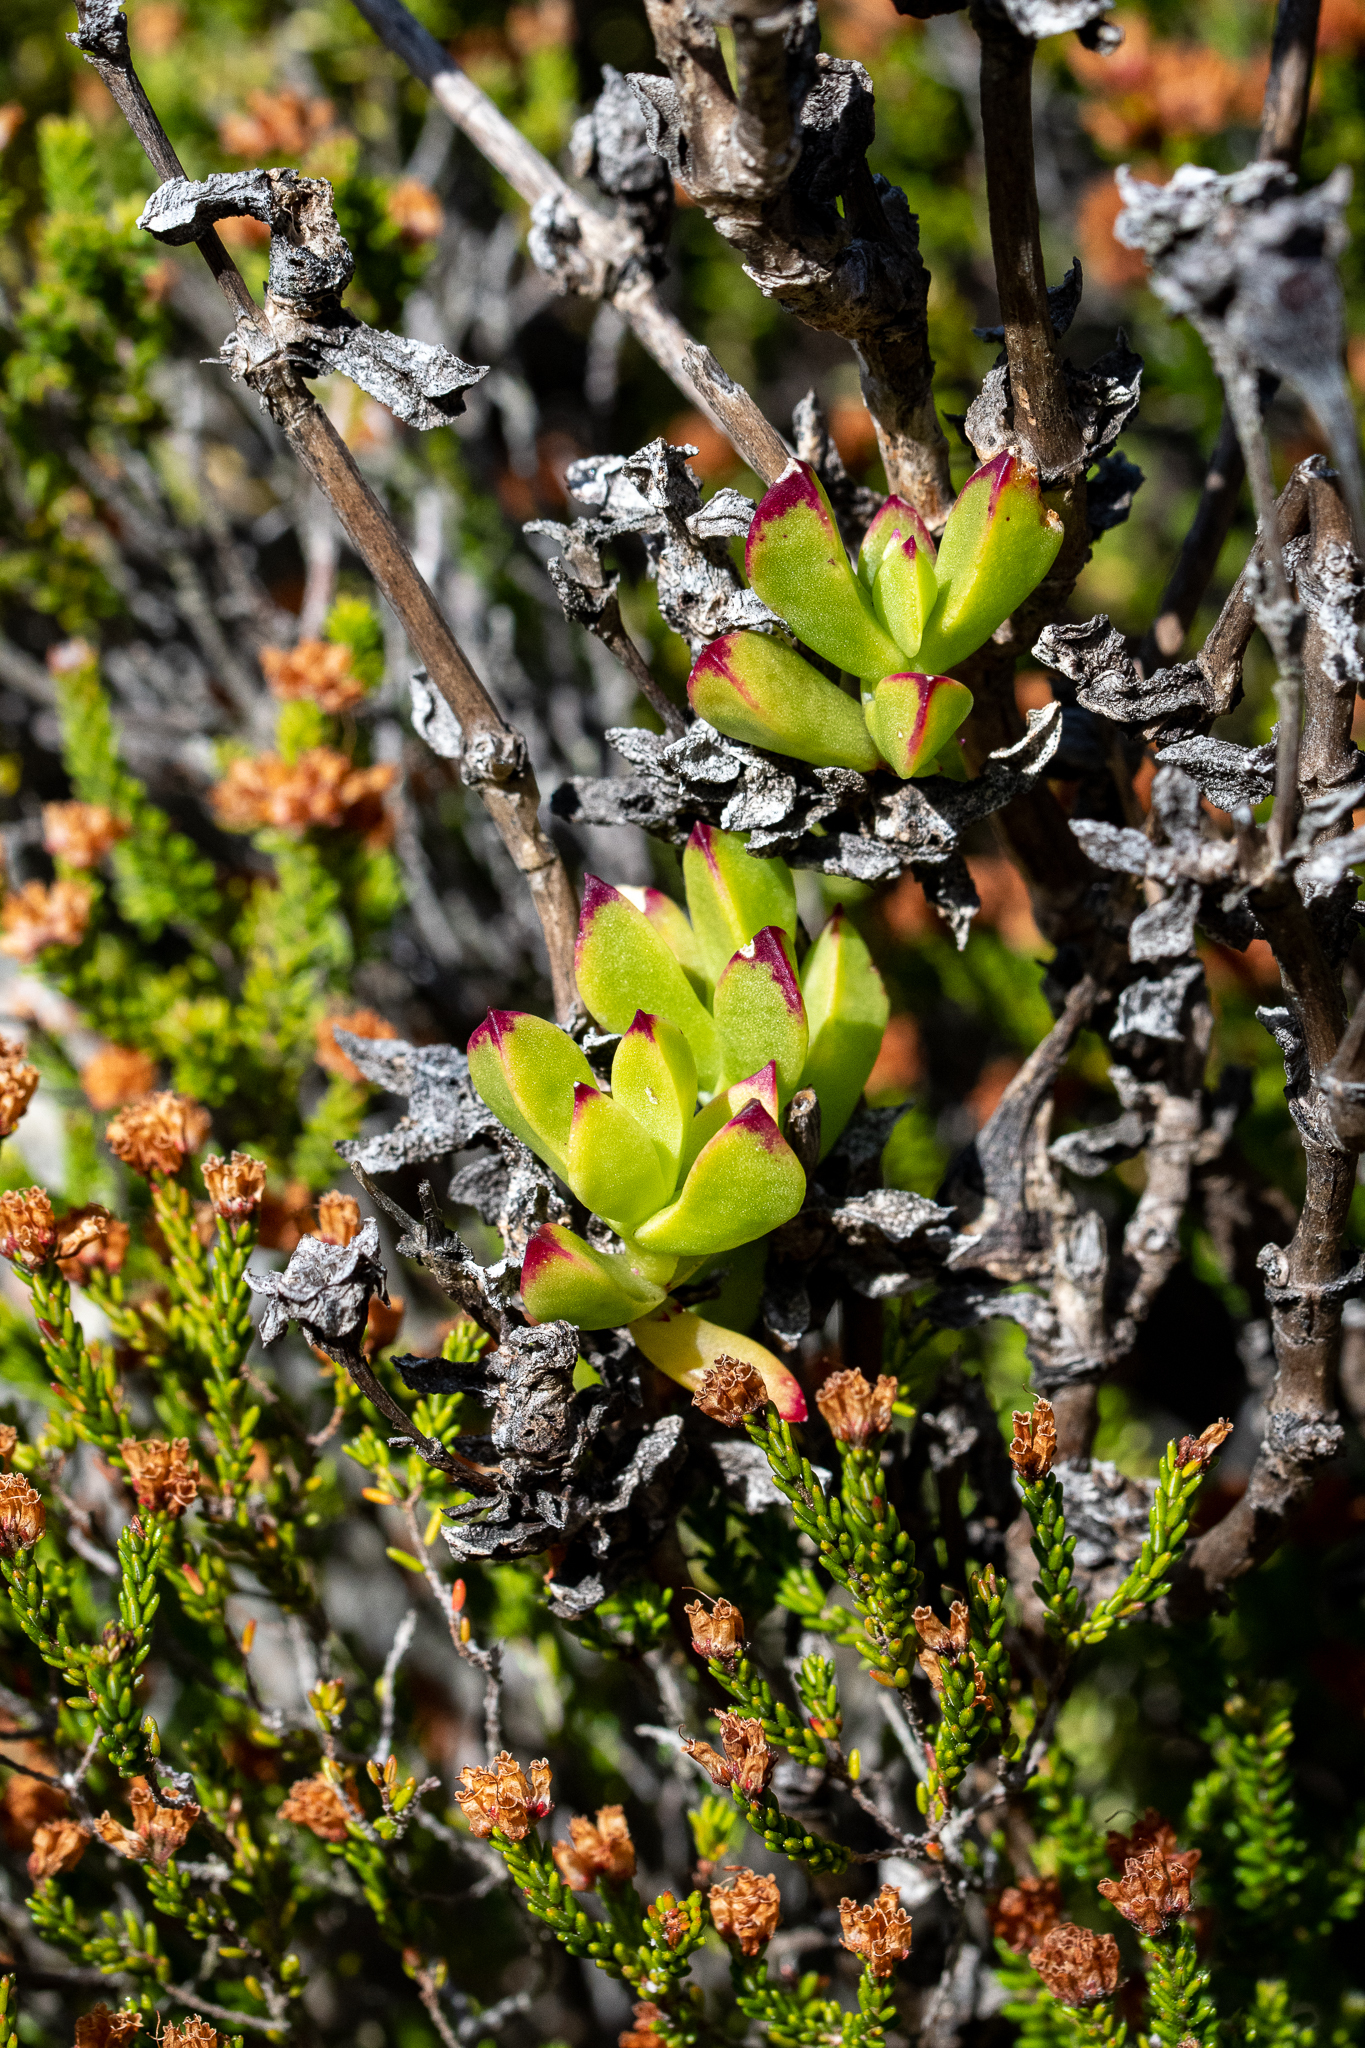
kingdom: Plantae
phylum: Tracheophyta
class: Magnoliopsida
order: Caryophyllales
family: Aizoaceae
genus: Erepsia
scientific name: Erepsia inclaudens
